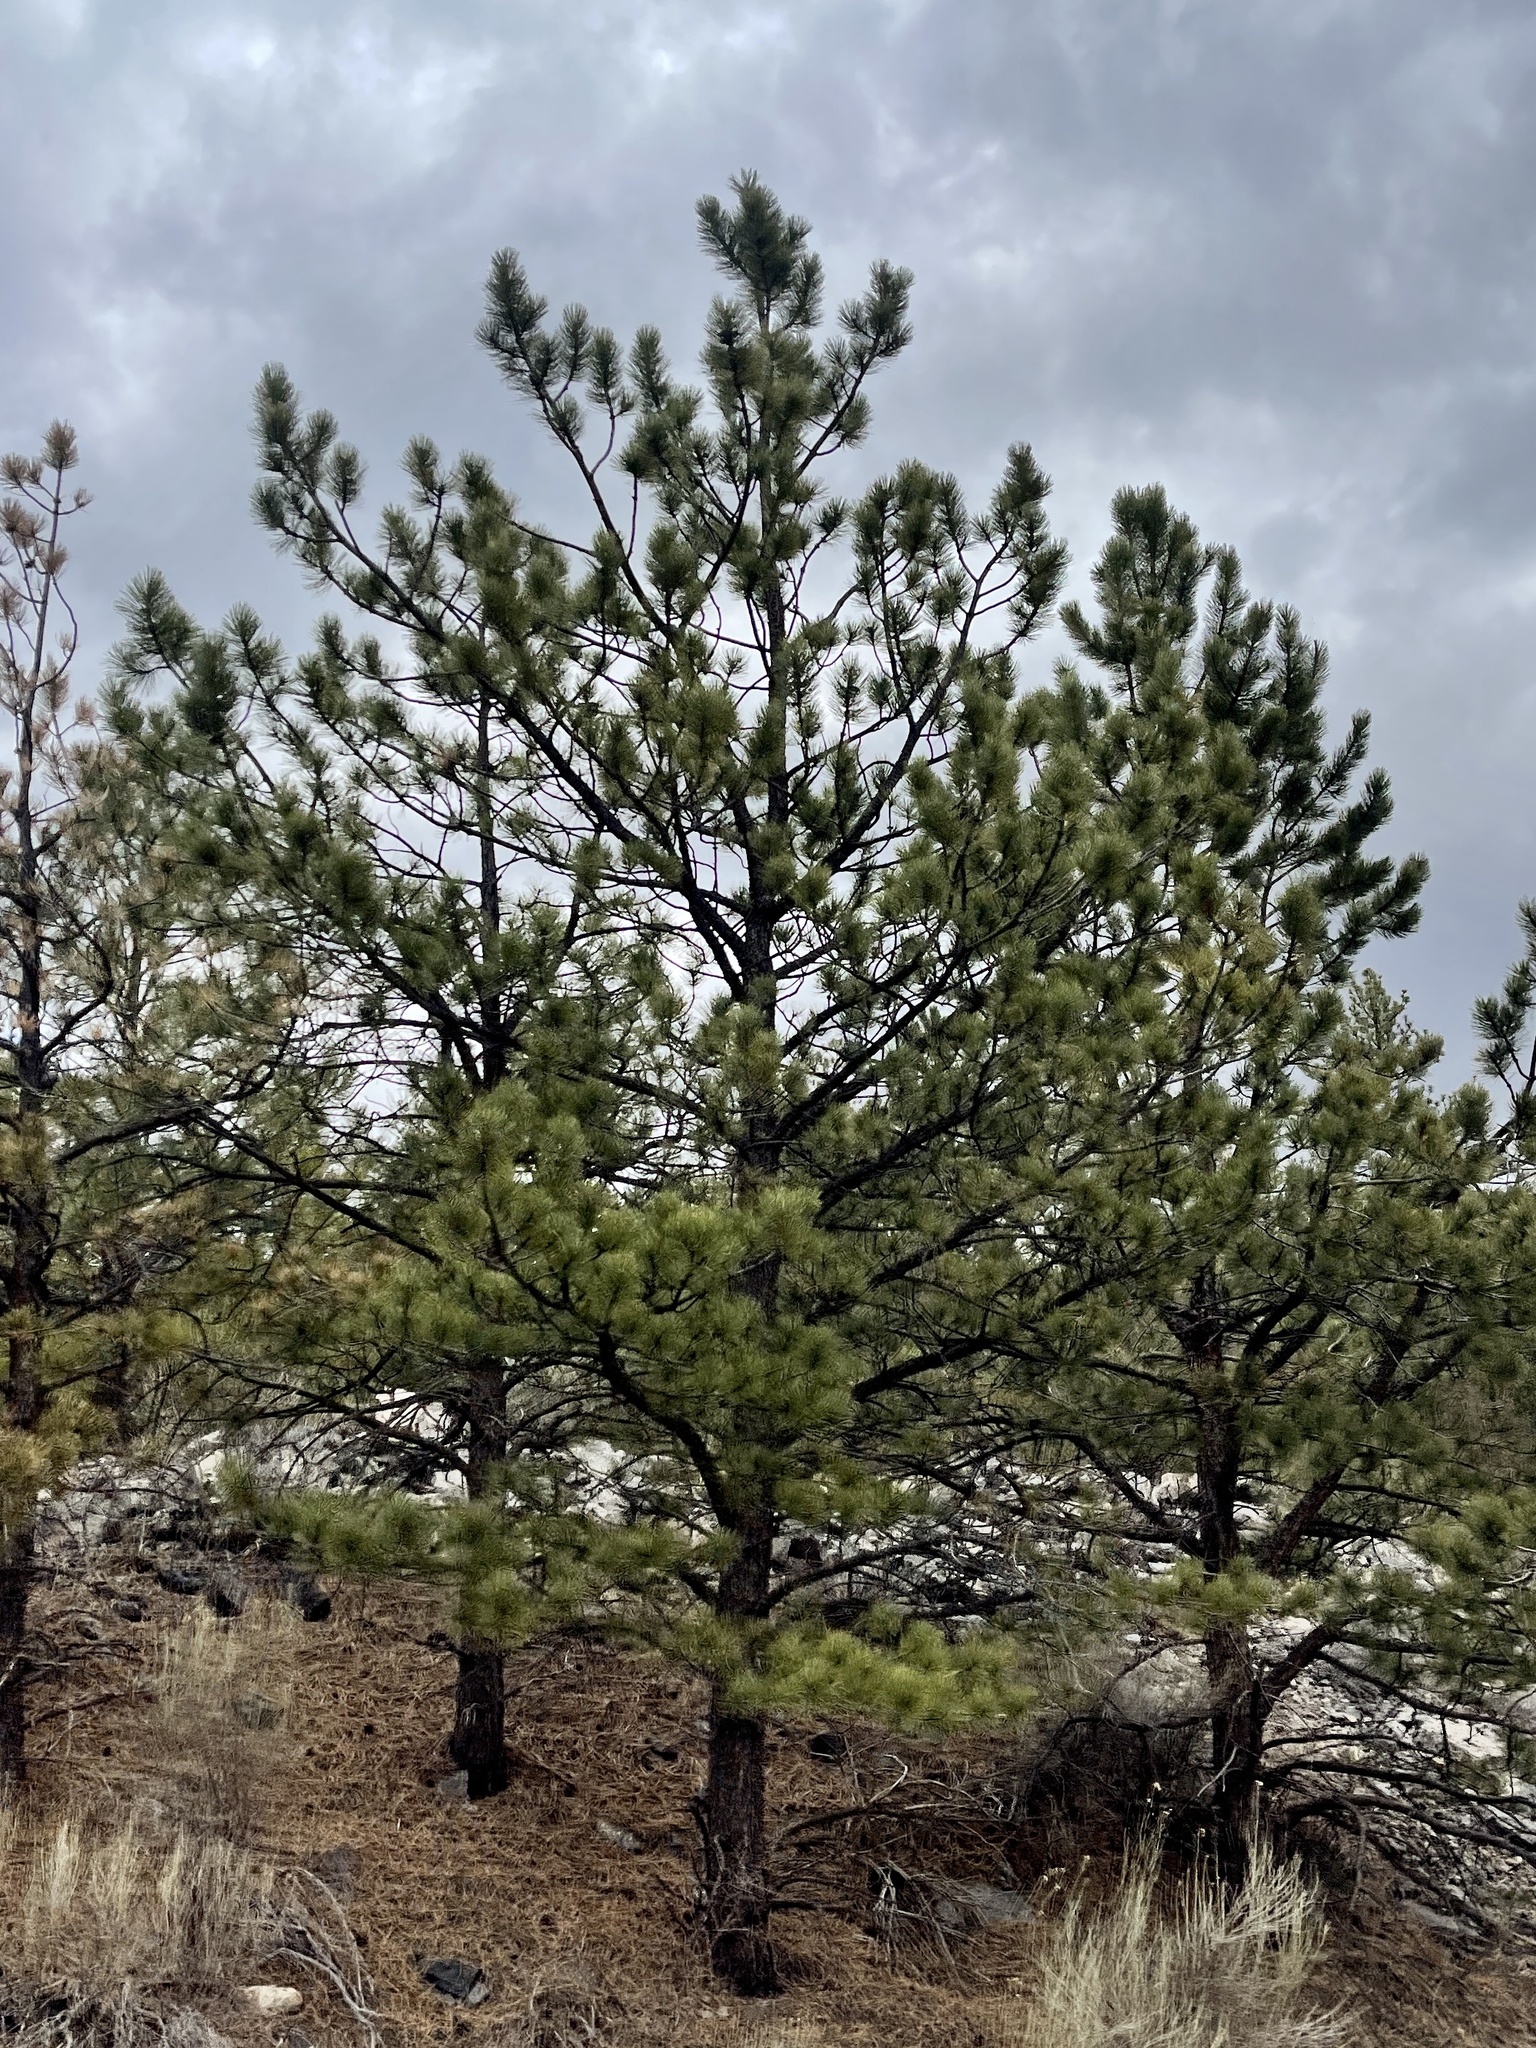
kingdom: Plantae
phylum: Tracheophyta
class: Pinopsida
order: Pinales
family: Pinaceae
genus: Pinus
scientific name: Pinus ponderosa
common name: Western yellow-pine
